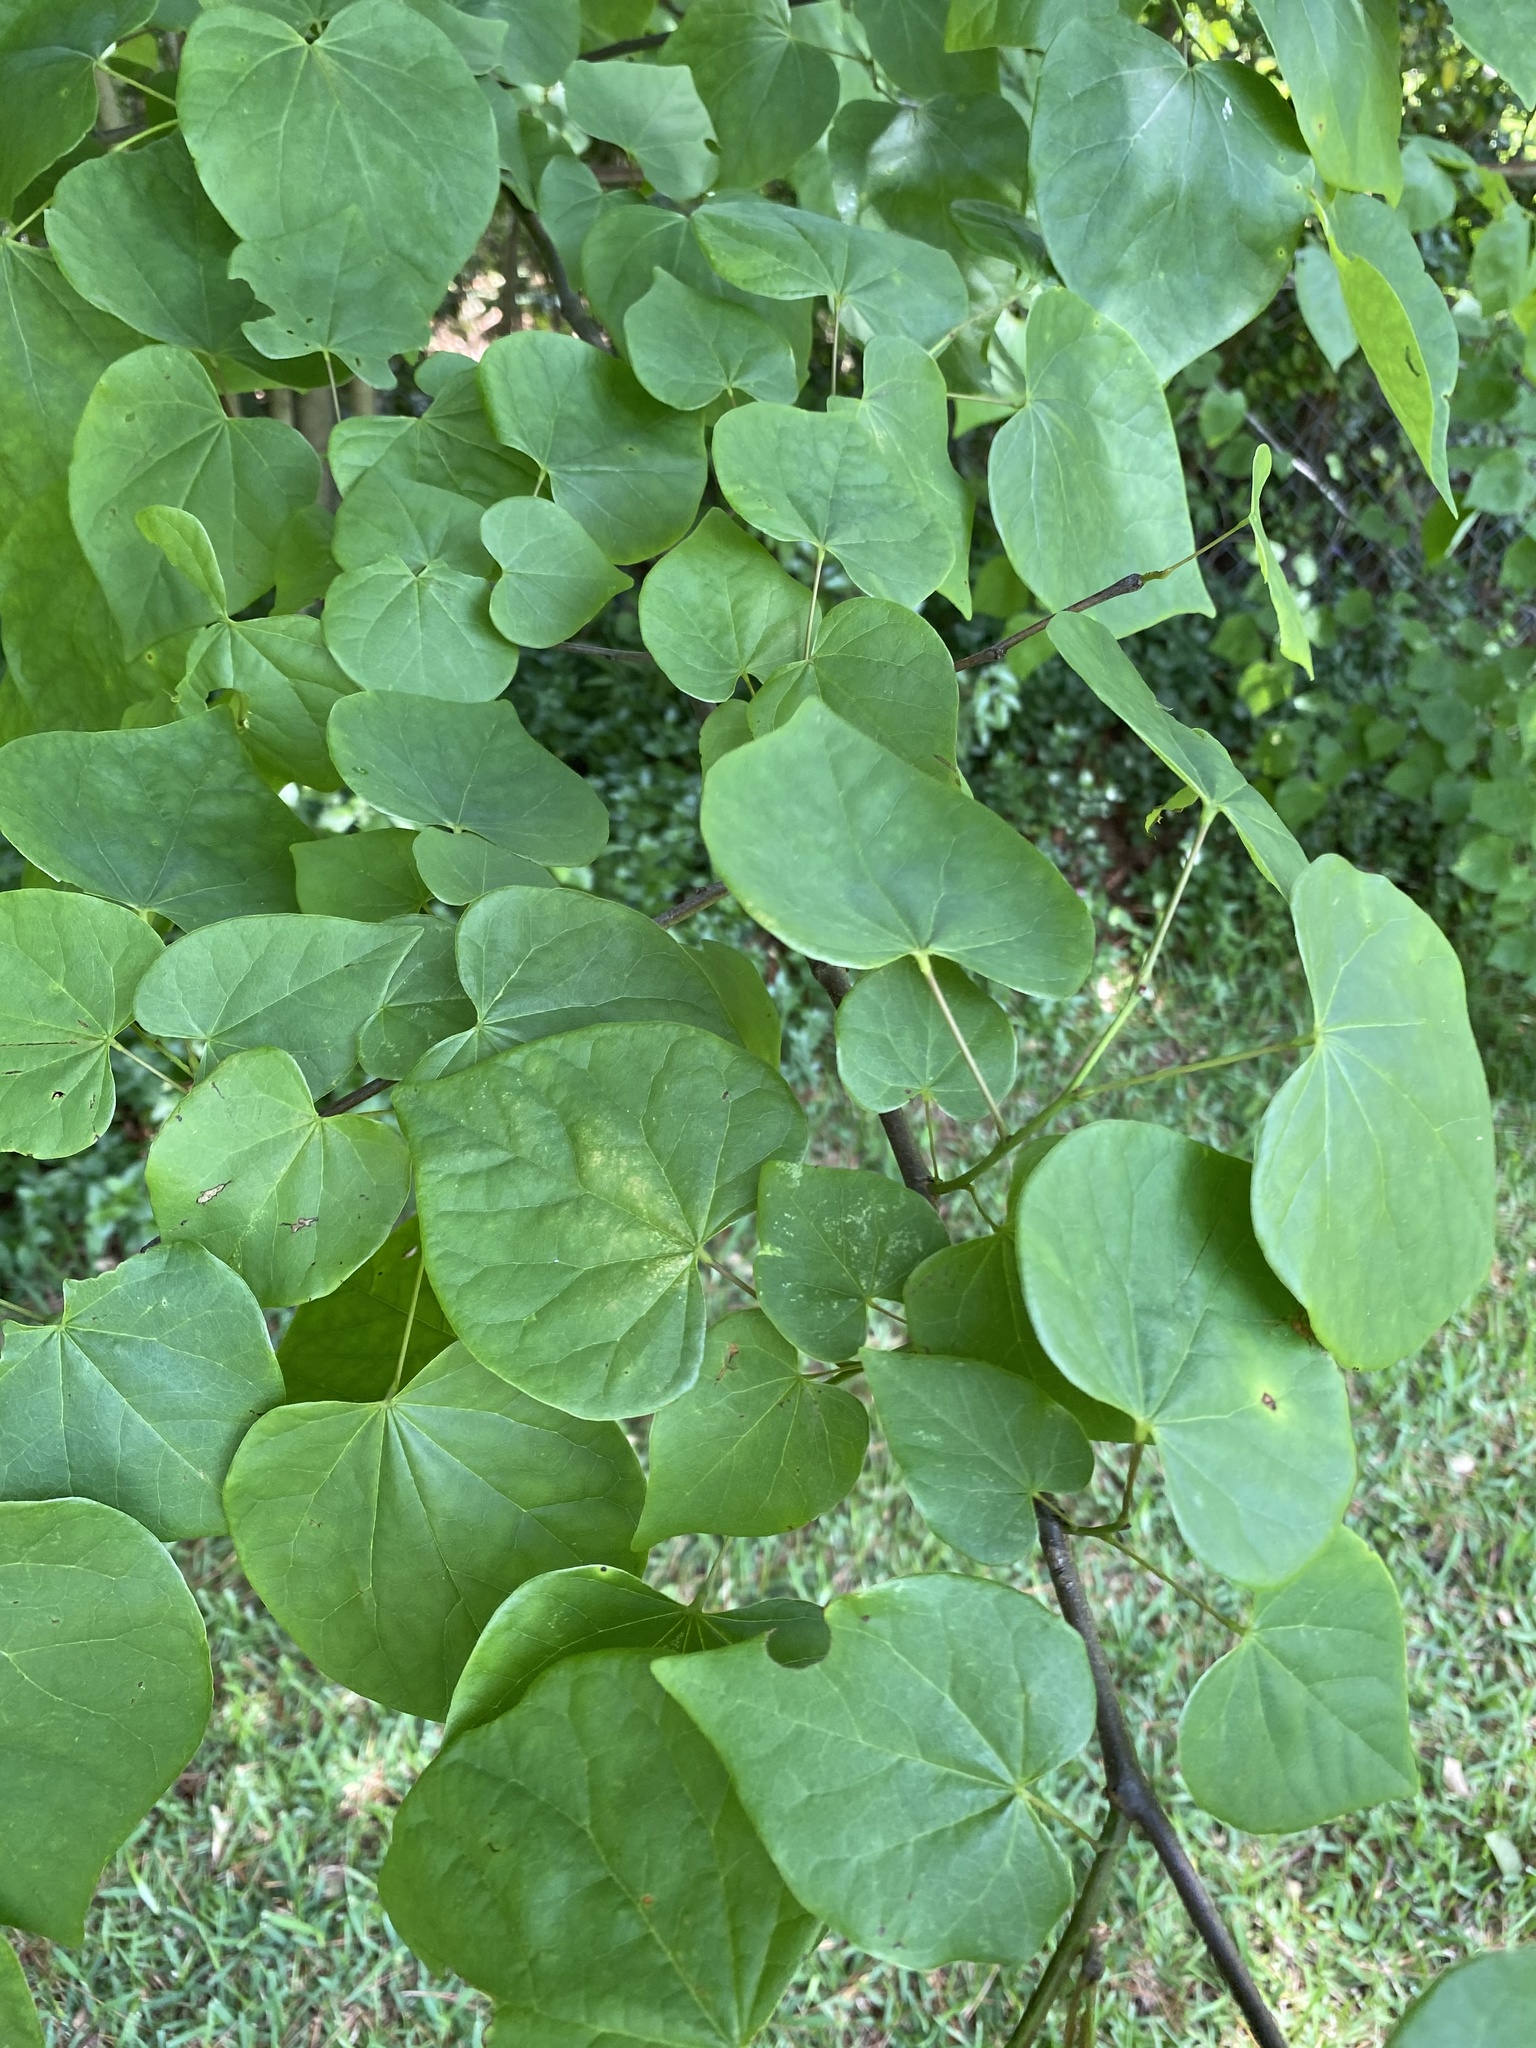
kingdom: Plantae
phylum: Tracheophyta
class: Magnoliopsida
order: Fabales
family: Fabaceae
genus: Cercis
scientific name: Cercis canadensis
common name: Eastern redbud
